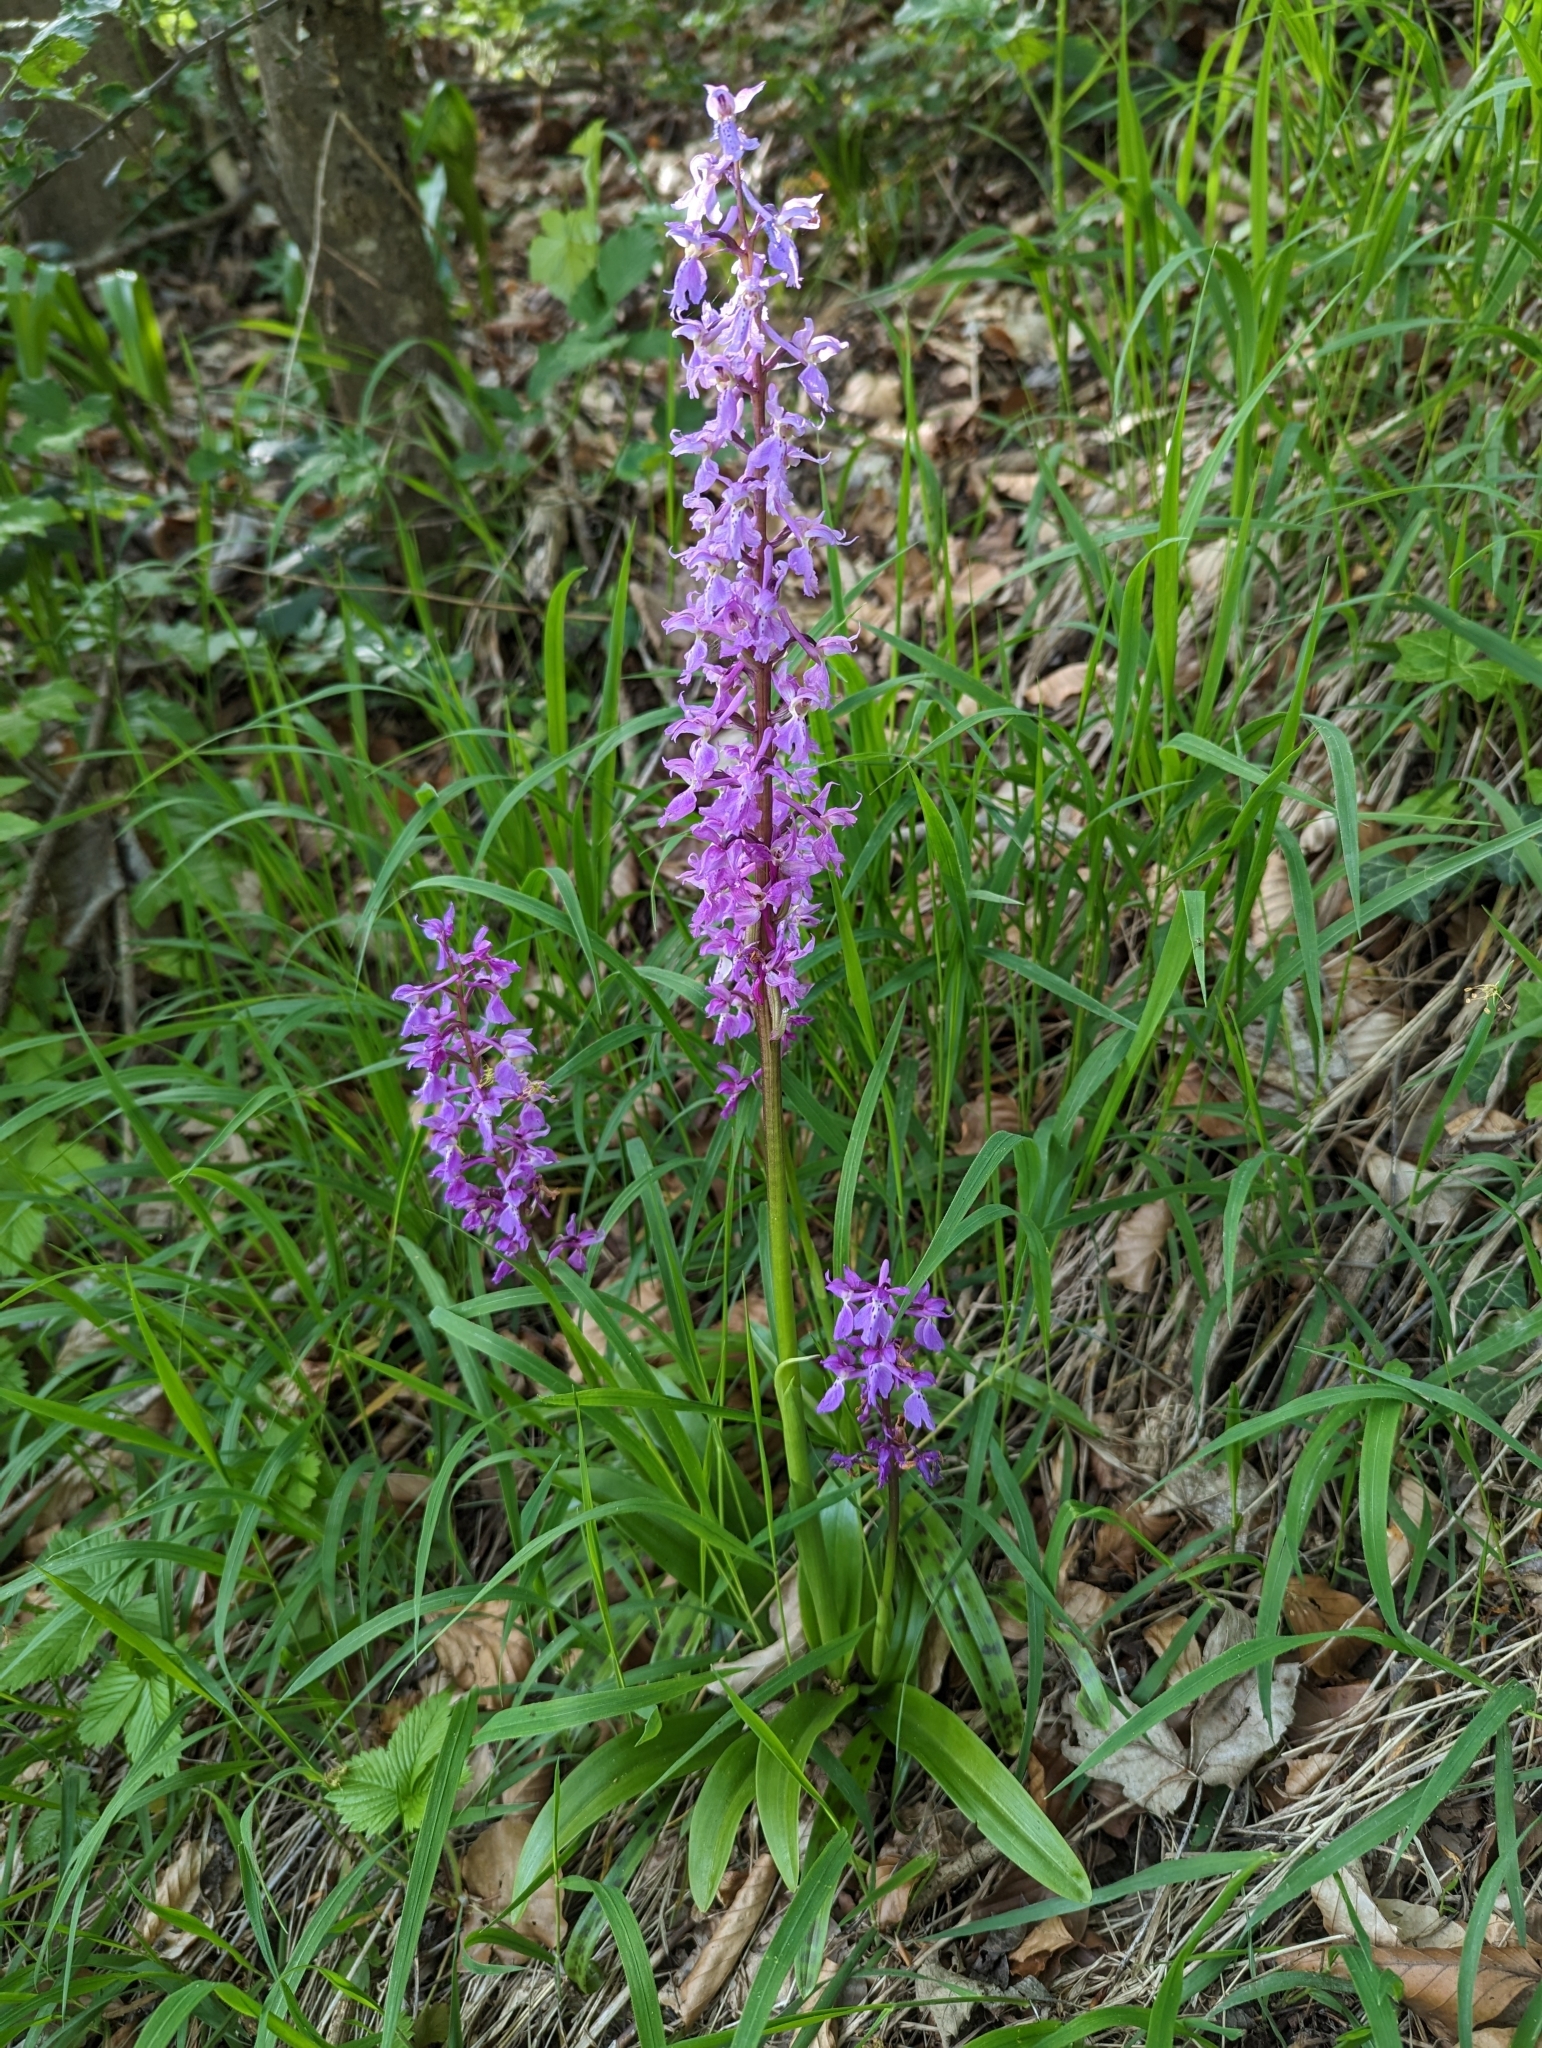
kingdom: Plantae
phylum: Tracheophyta
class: Liliopsida
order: Asparagales
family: Orchidaceae
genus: Orchis
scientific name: Orchis mascula
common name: Early-purple orchid
